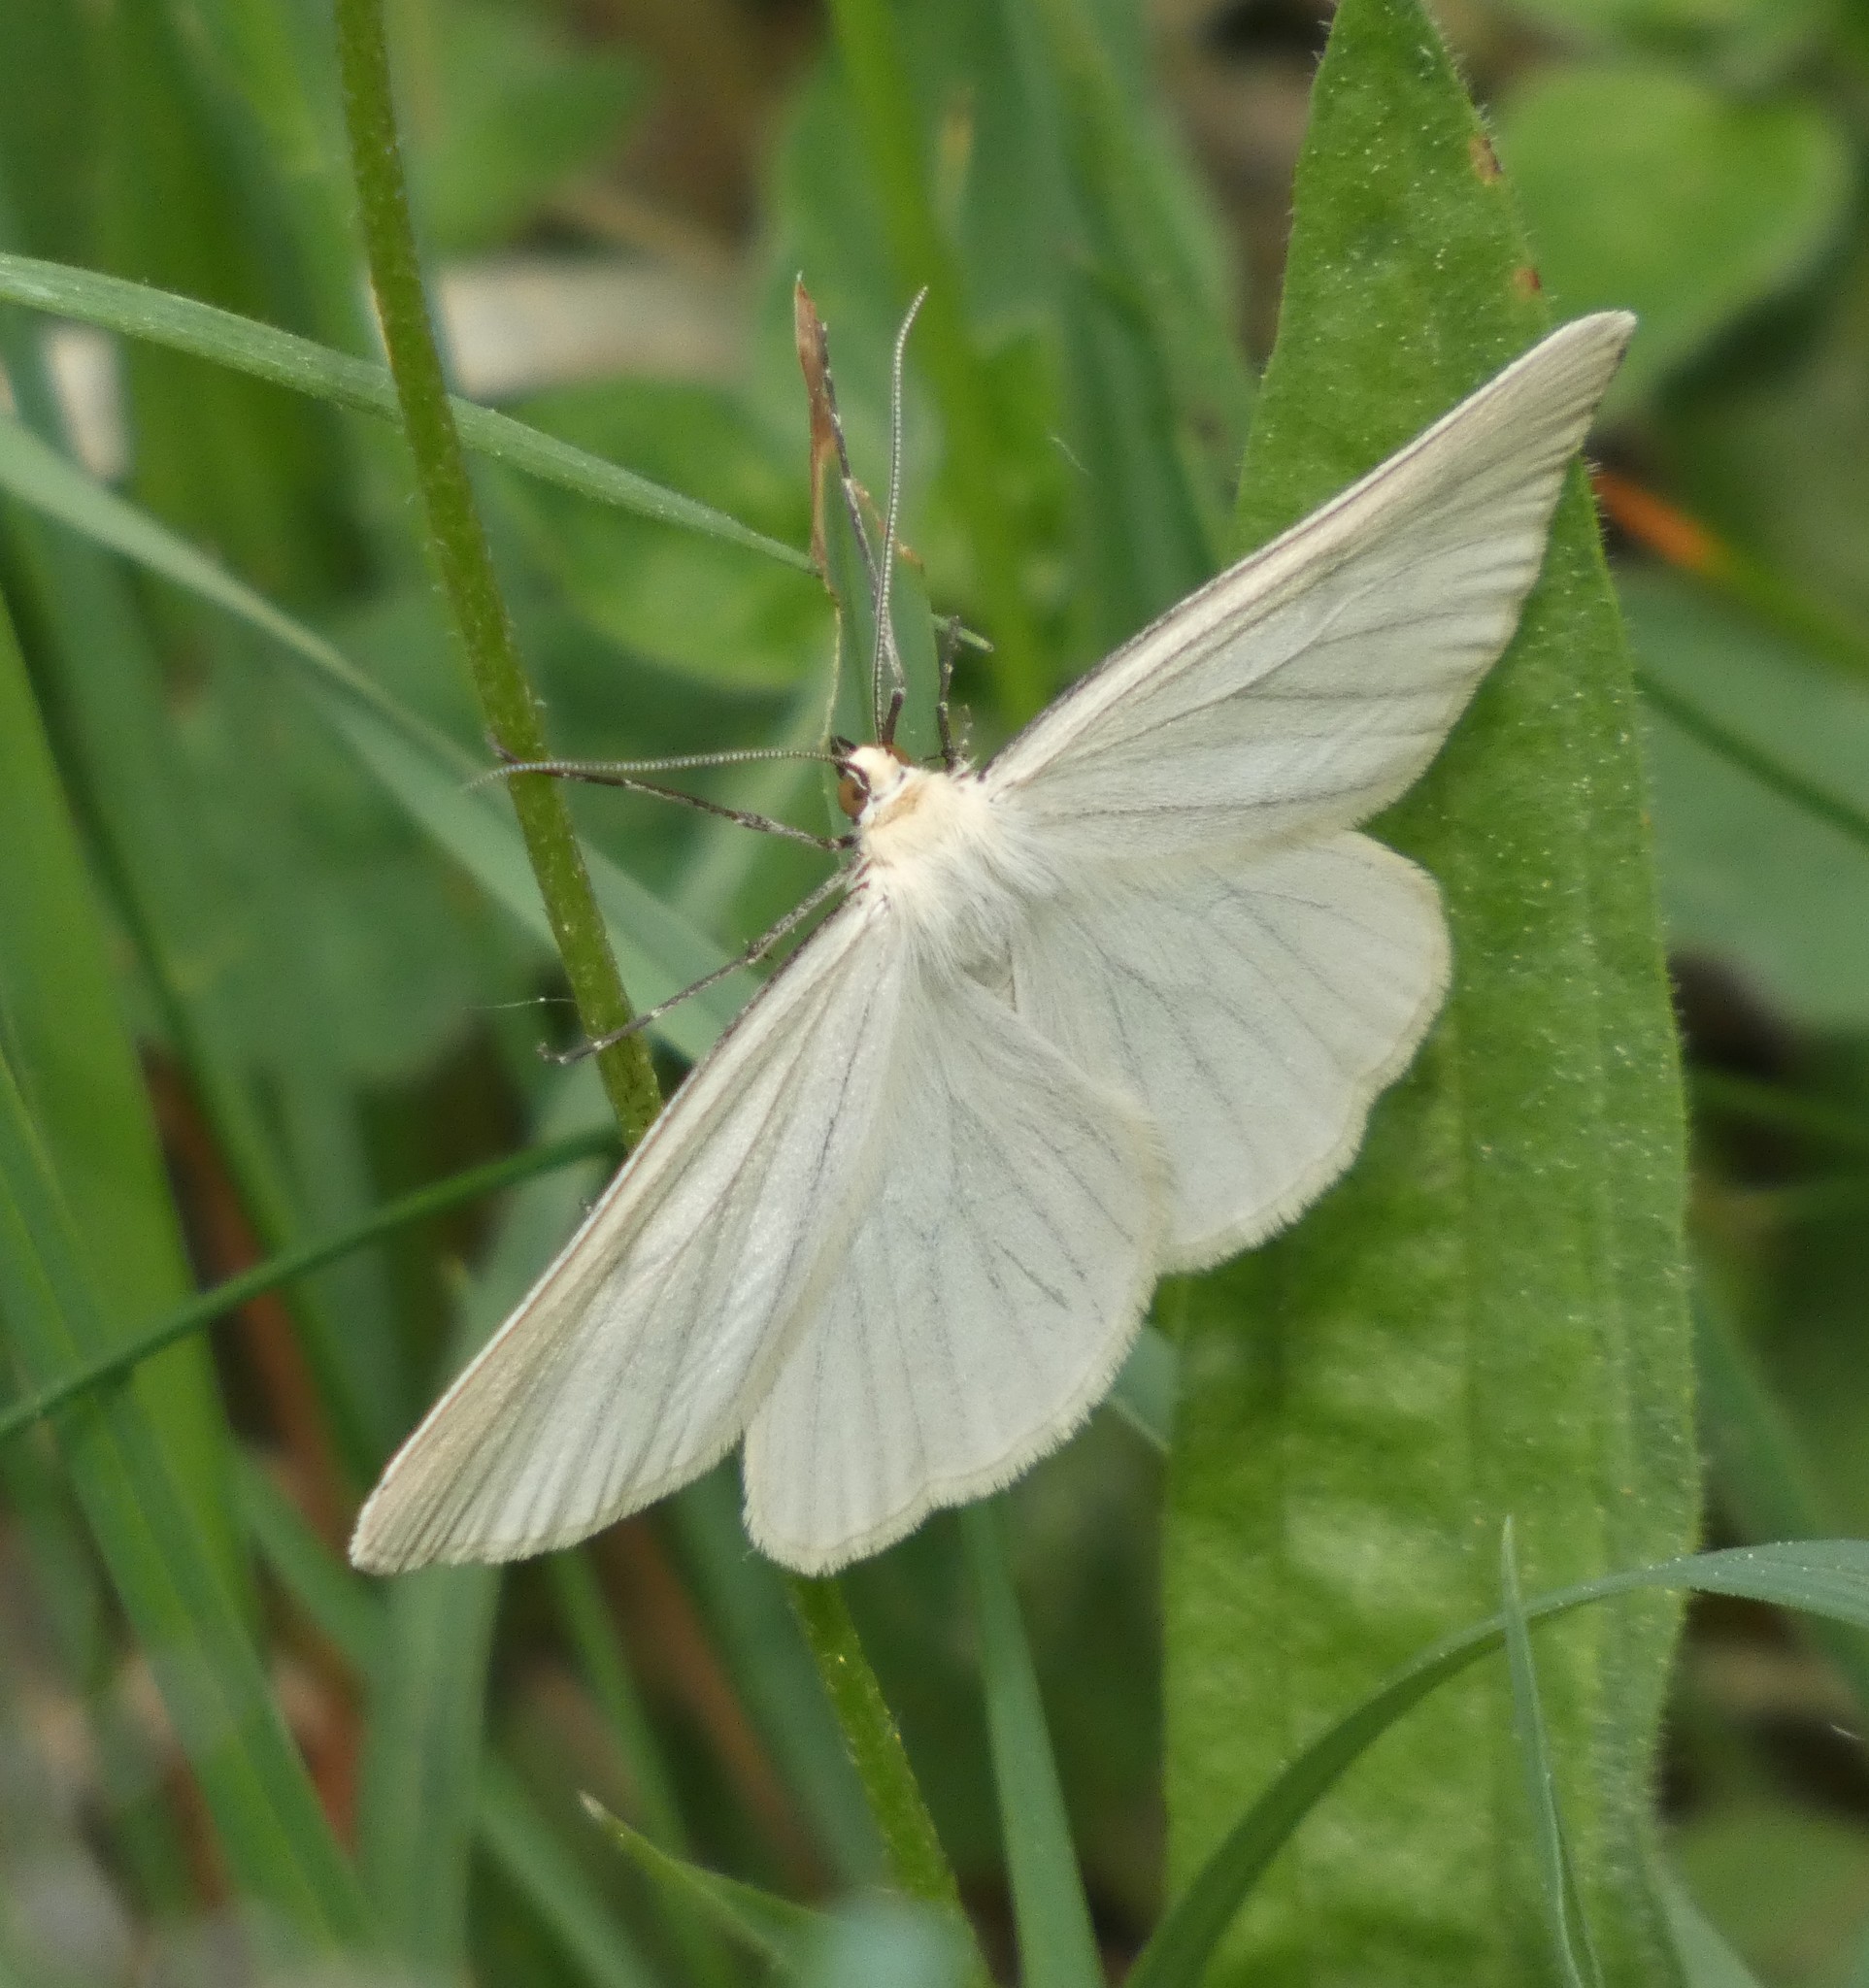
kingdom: Animalia
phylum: Arthropoda
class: Insecta
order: Lepidoptera
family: Geometridae
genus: Siona
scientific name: Siona lineata
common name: Black-veined moth
